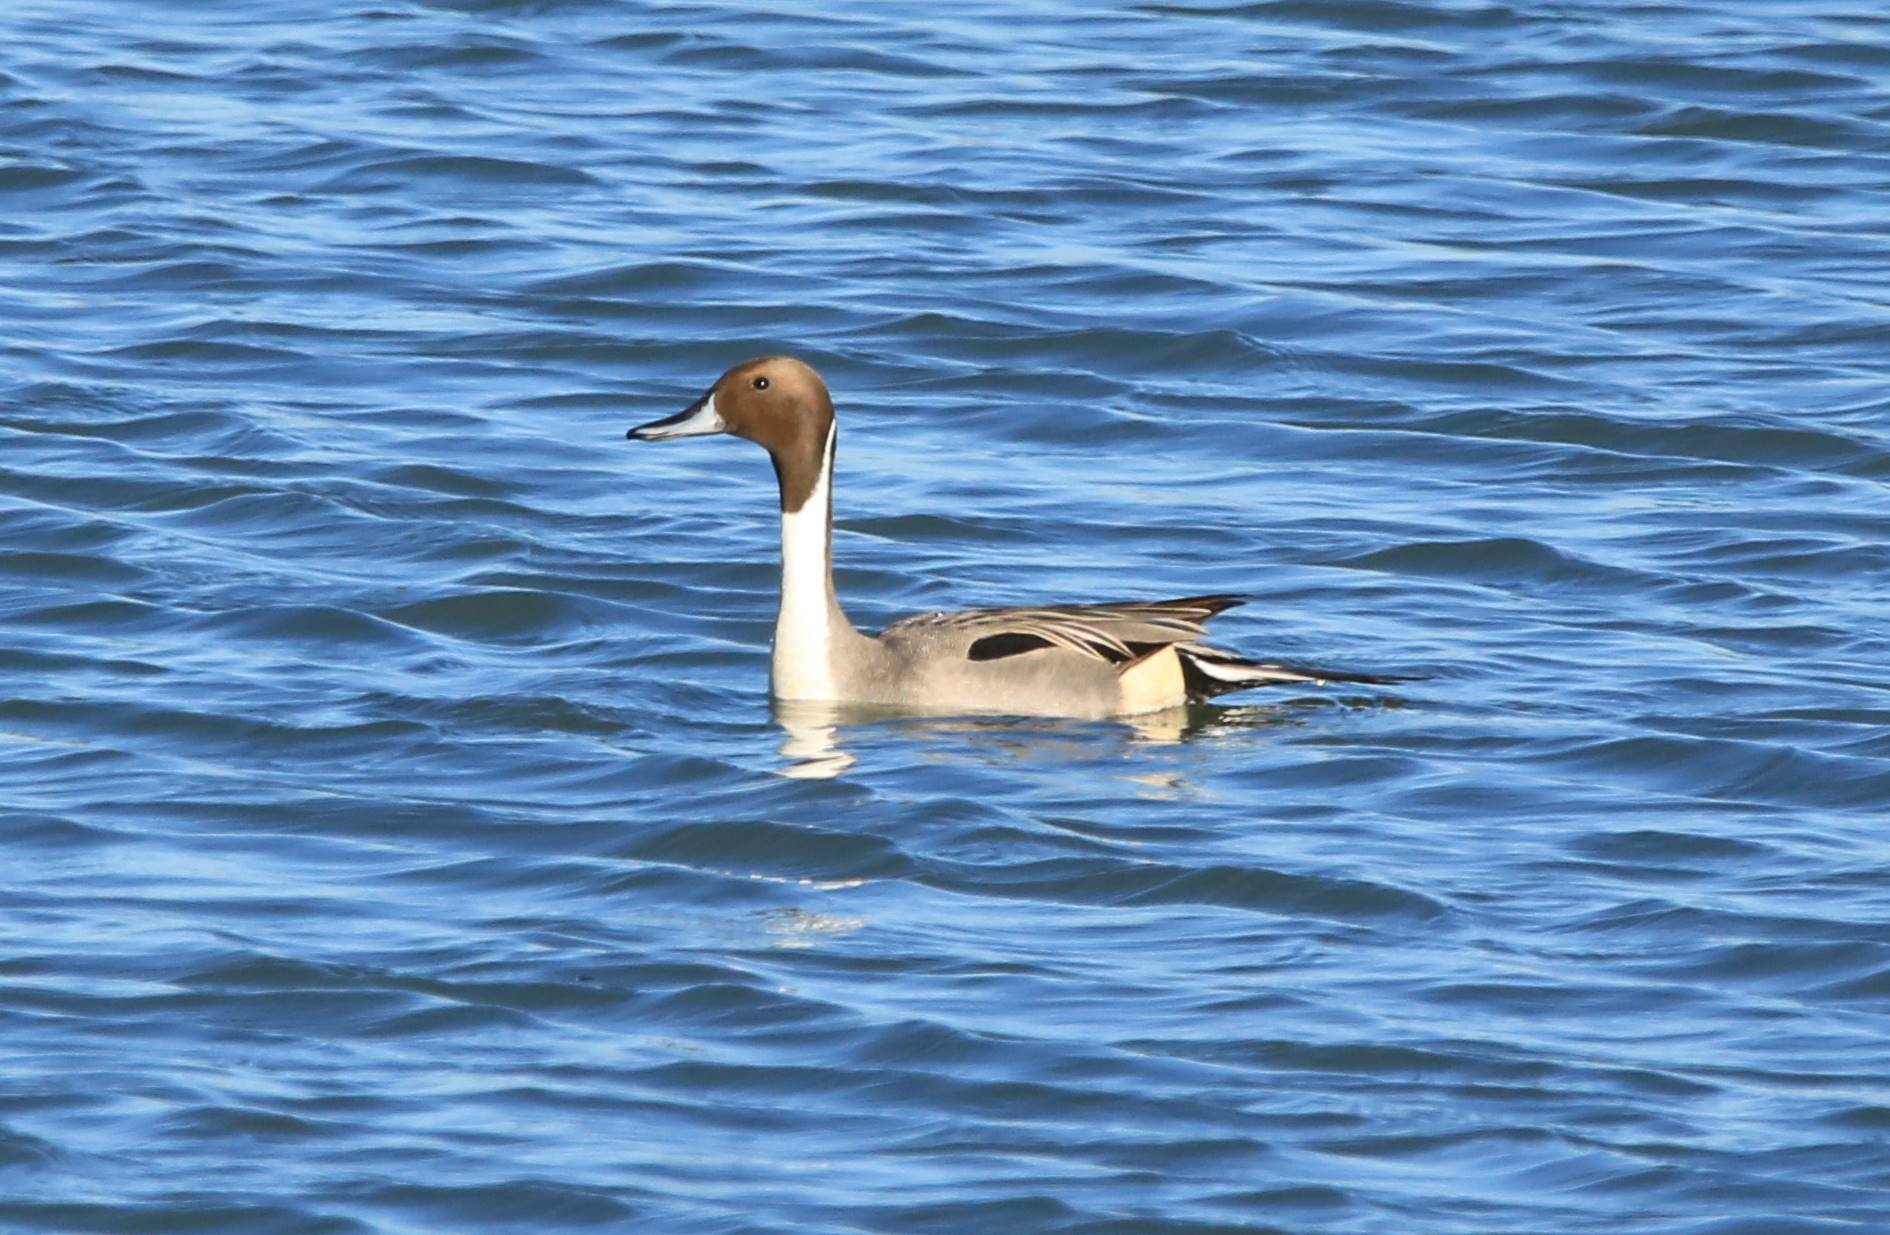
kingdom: Animalia
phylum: Chordata
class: Aves
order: Anseriformes
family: Anatidae
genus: Anas
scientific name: Anas acuta
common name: Northern pintail
